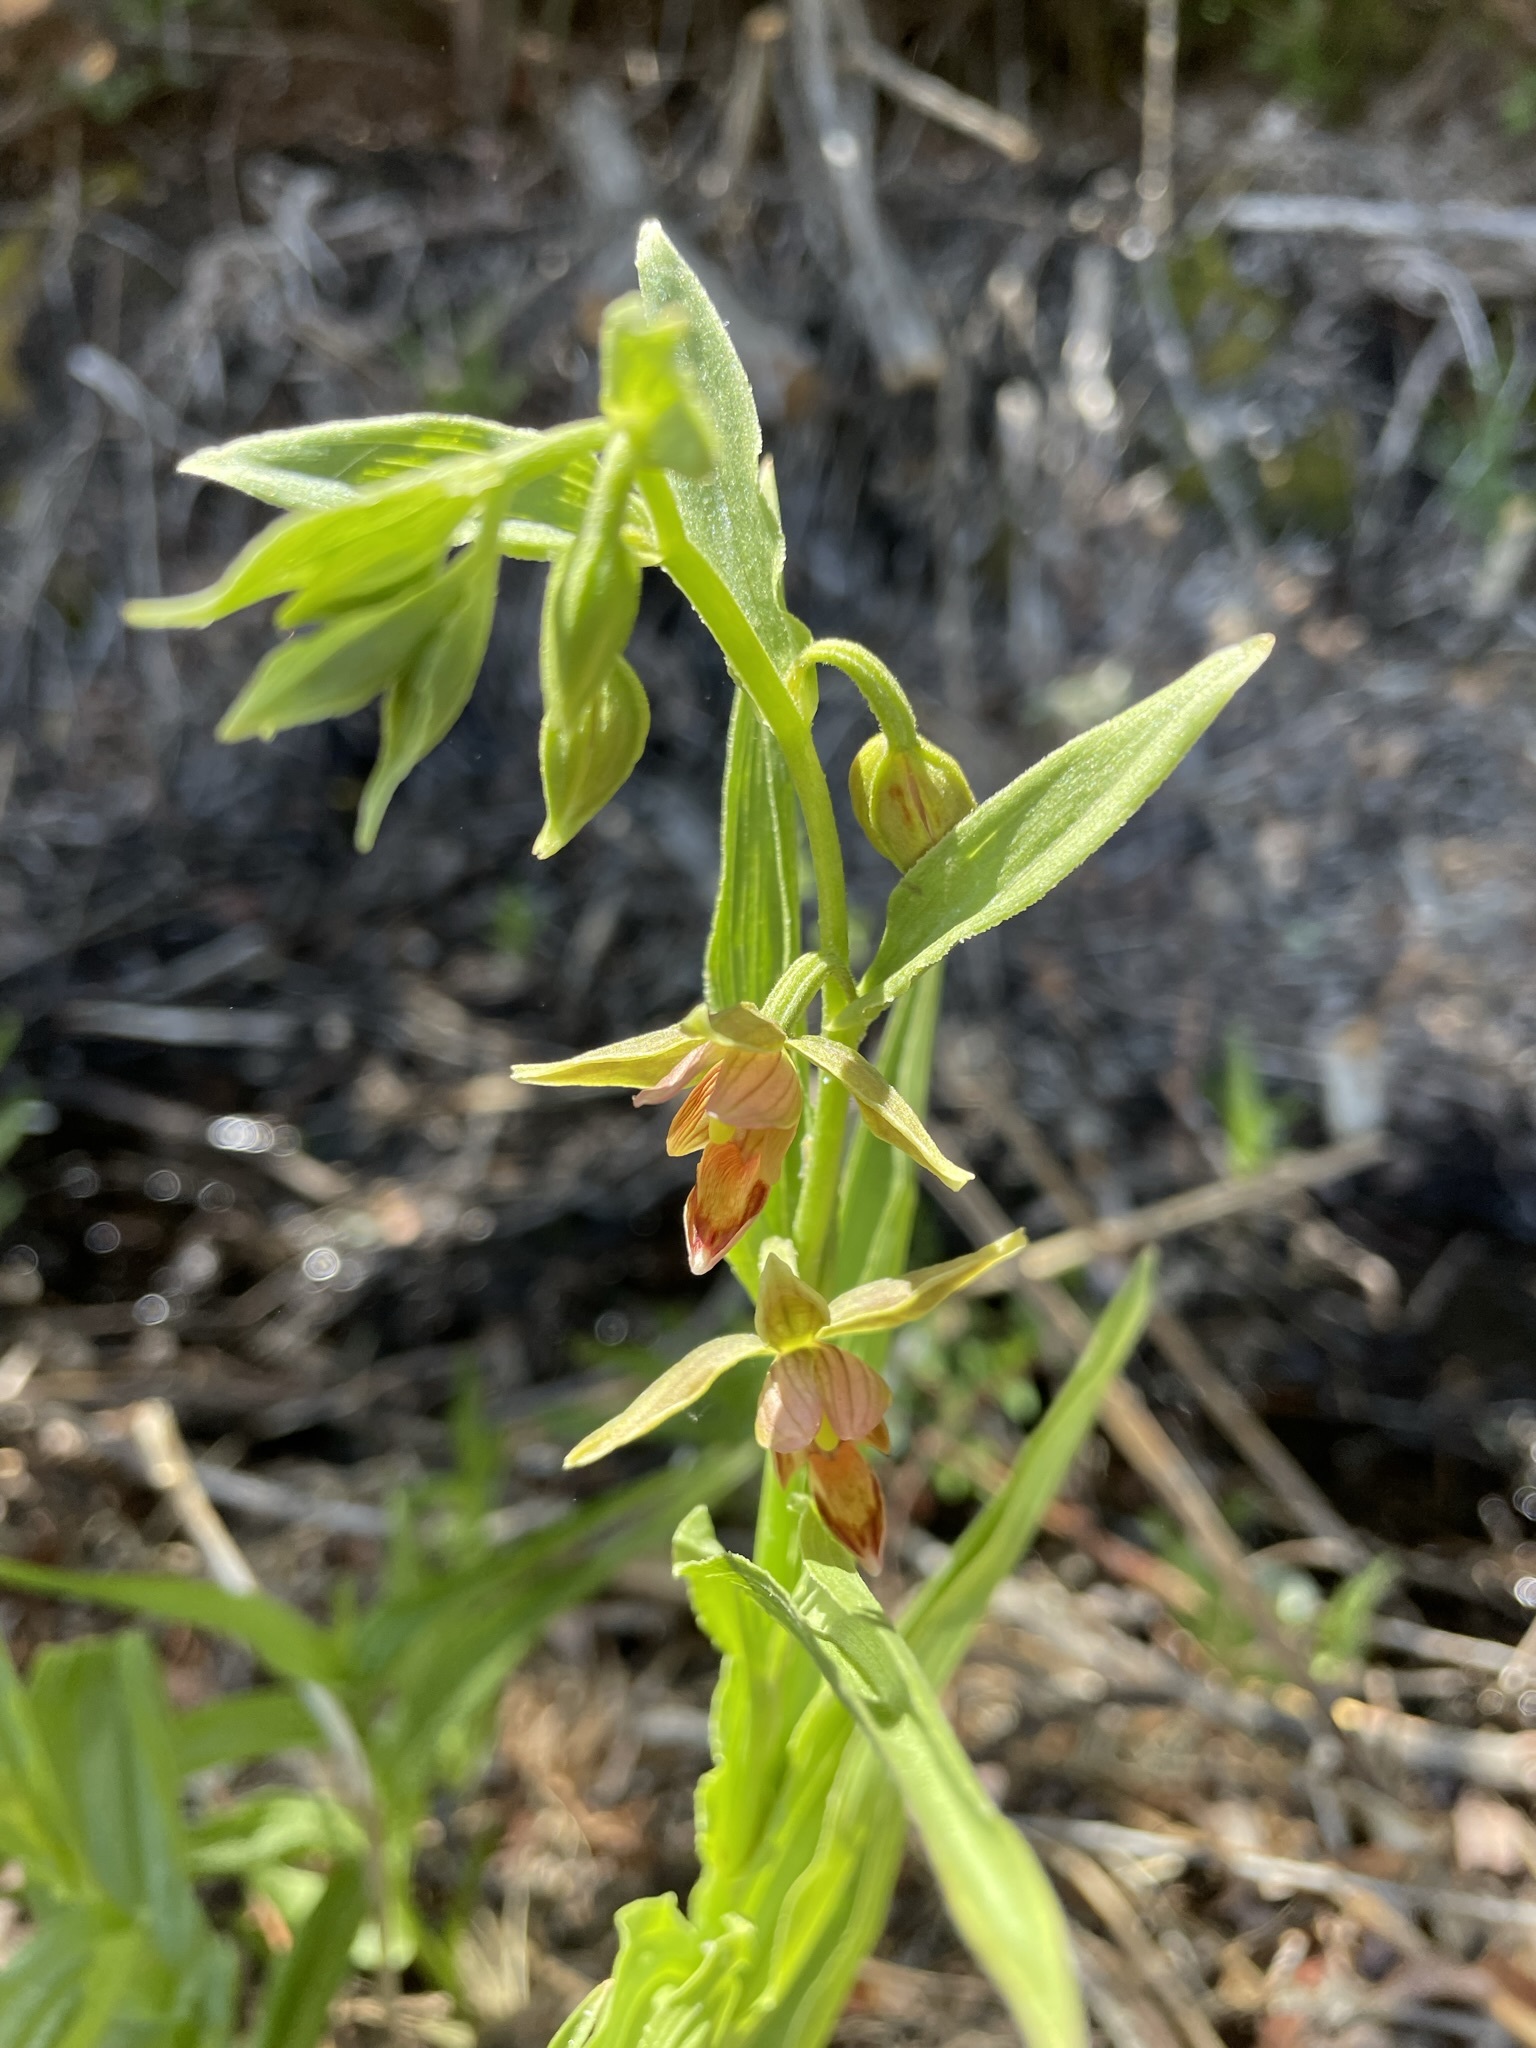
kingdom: Plantae
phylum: Tracheophyta
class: Liliopsida
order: Asparagales
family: Orchidaceae
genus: Epipactis
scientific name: Epipactis gigantea
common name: Chatterbox
